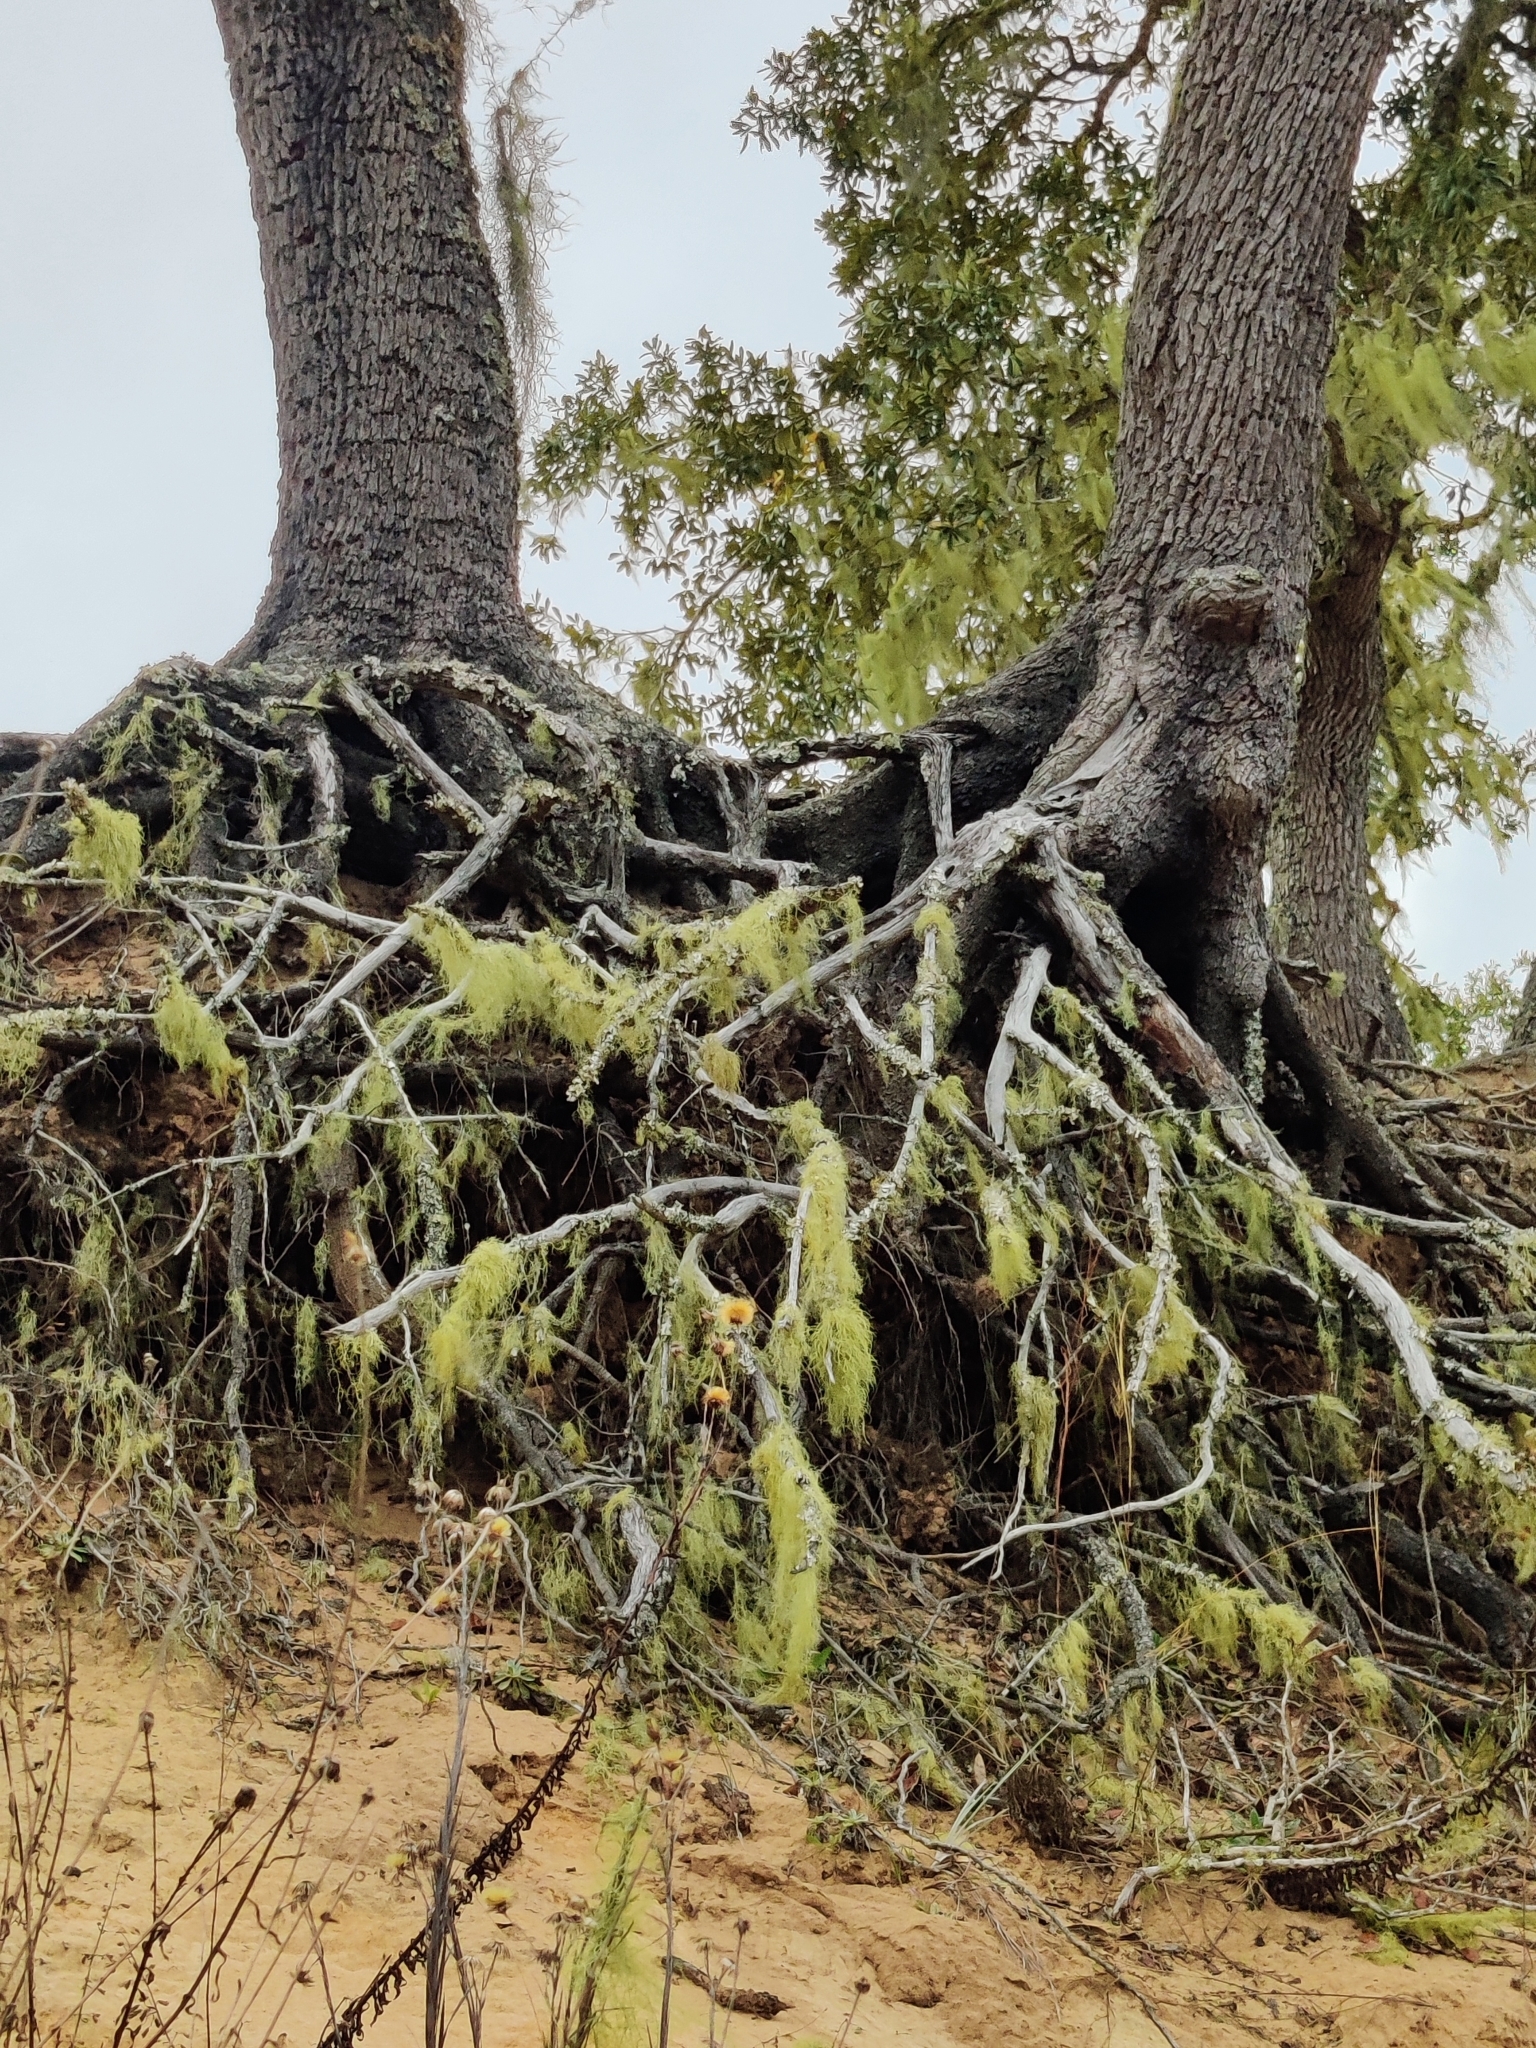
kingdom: Plantae
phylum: Tracheophyta
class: Magnoliopsida
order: Fagales
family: Fagaceae
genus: Quercus
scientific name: Quercus geminata
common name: Sand live oak
